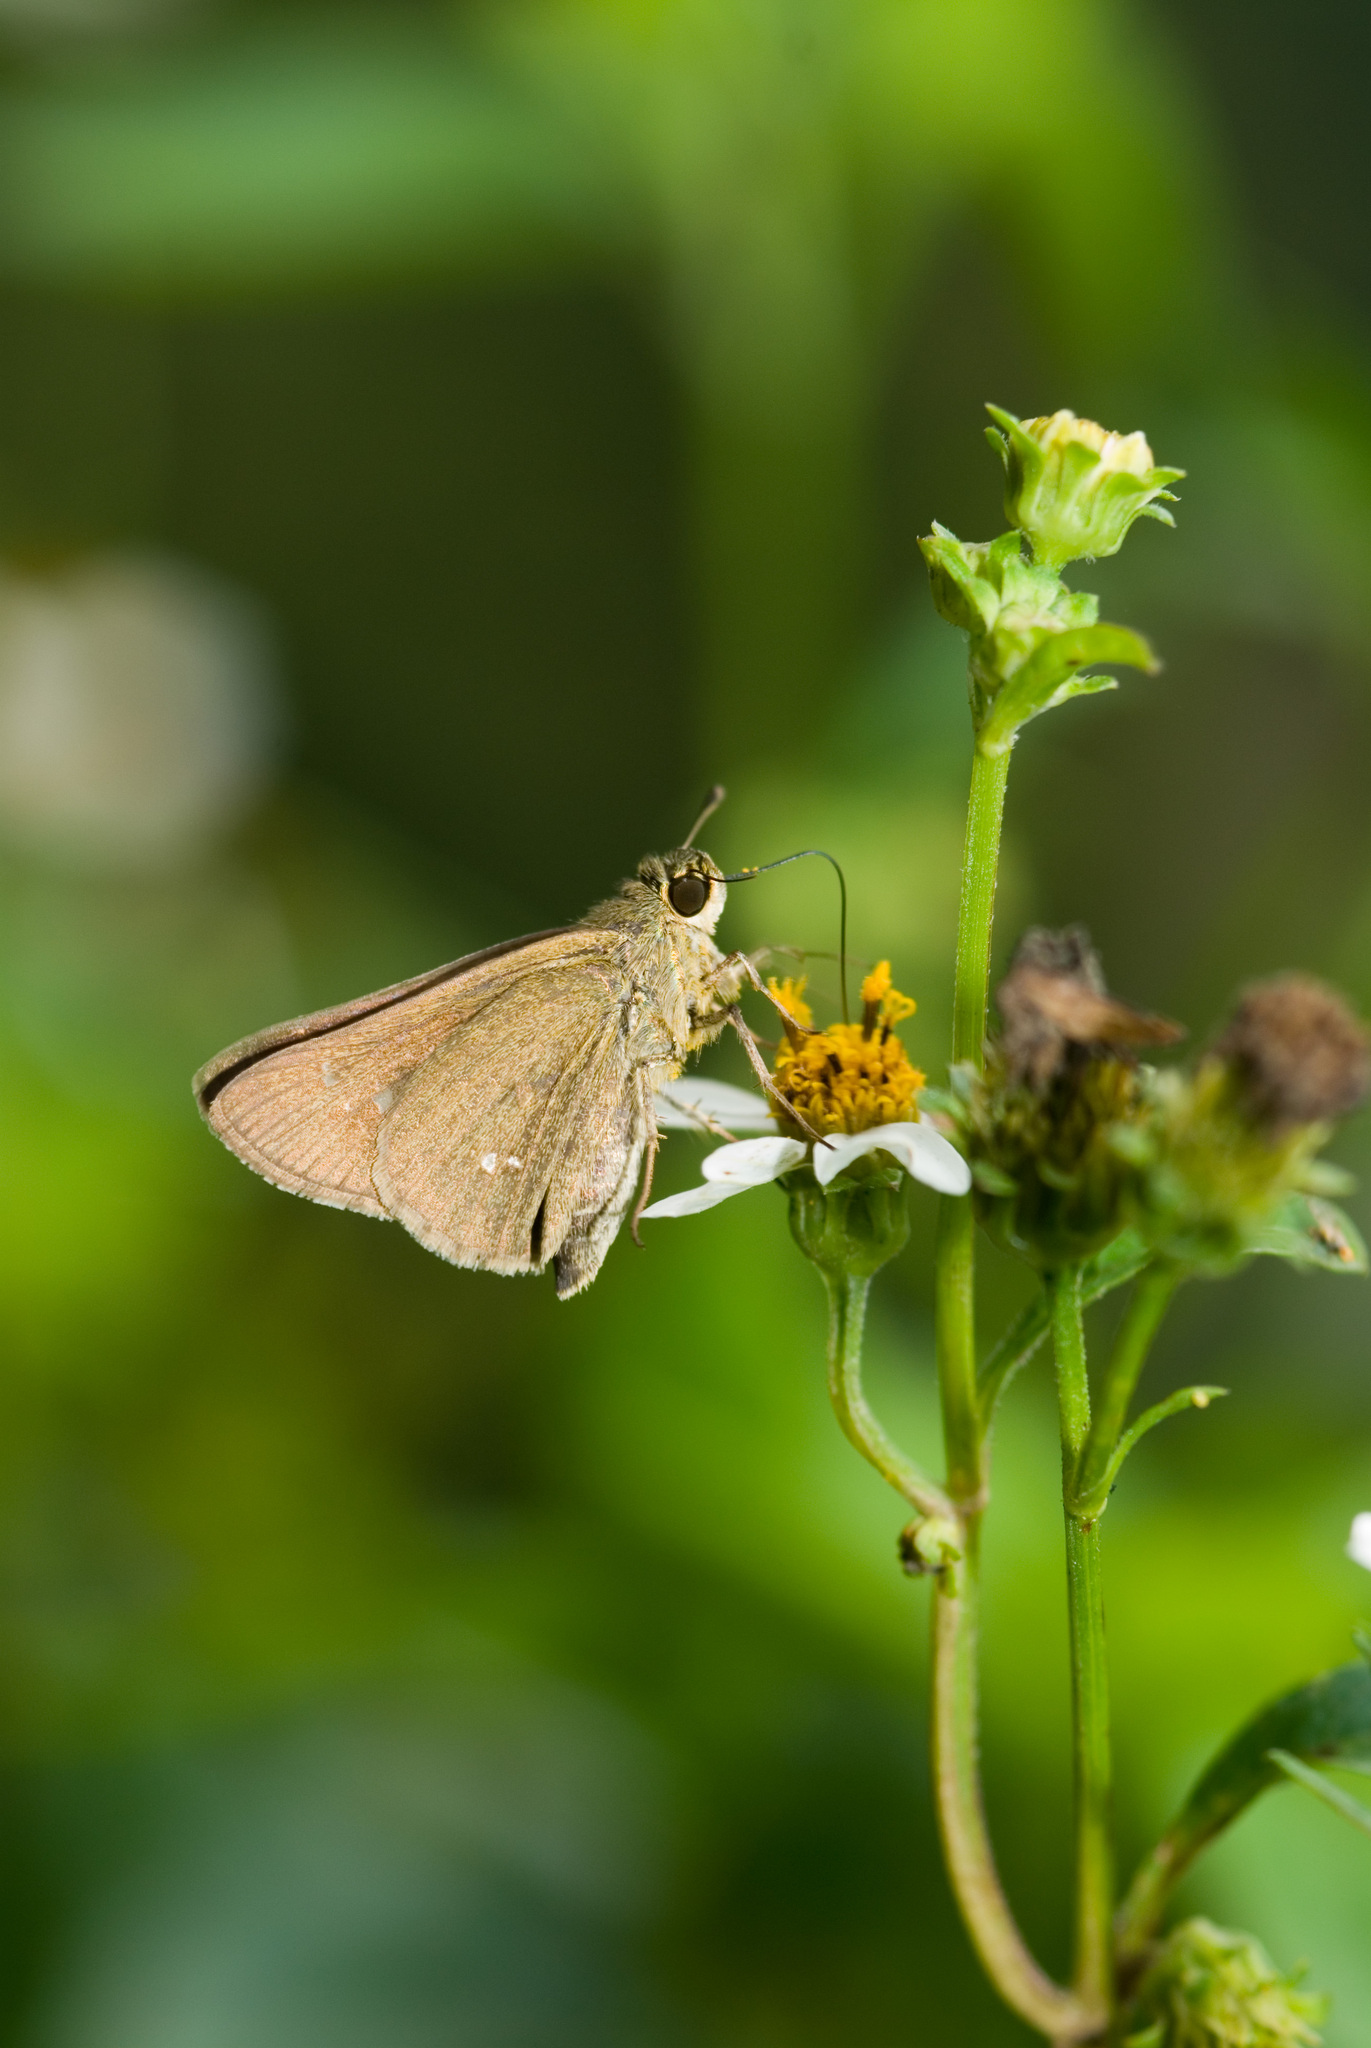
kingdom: Animalia
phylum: Arthropoda
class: Insecta
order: Lepidoptera
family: Hesperiidae
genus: Parnara
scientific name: Parnara naso
